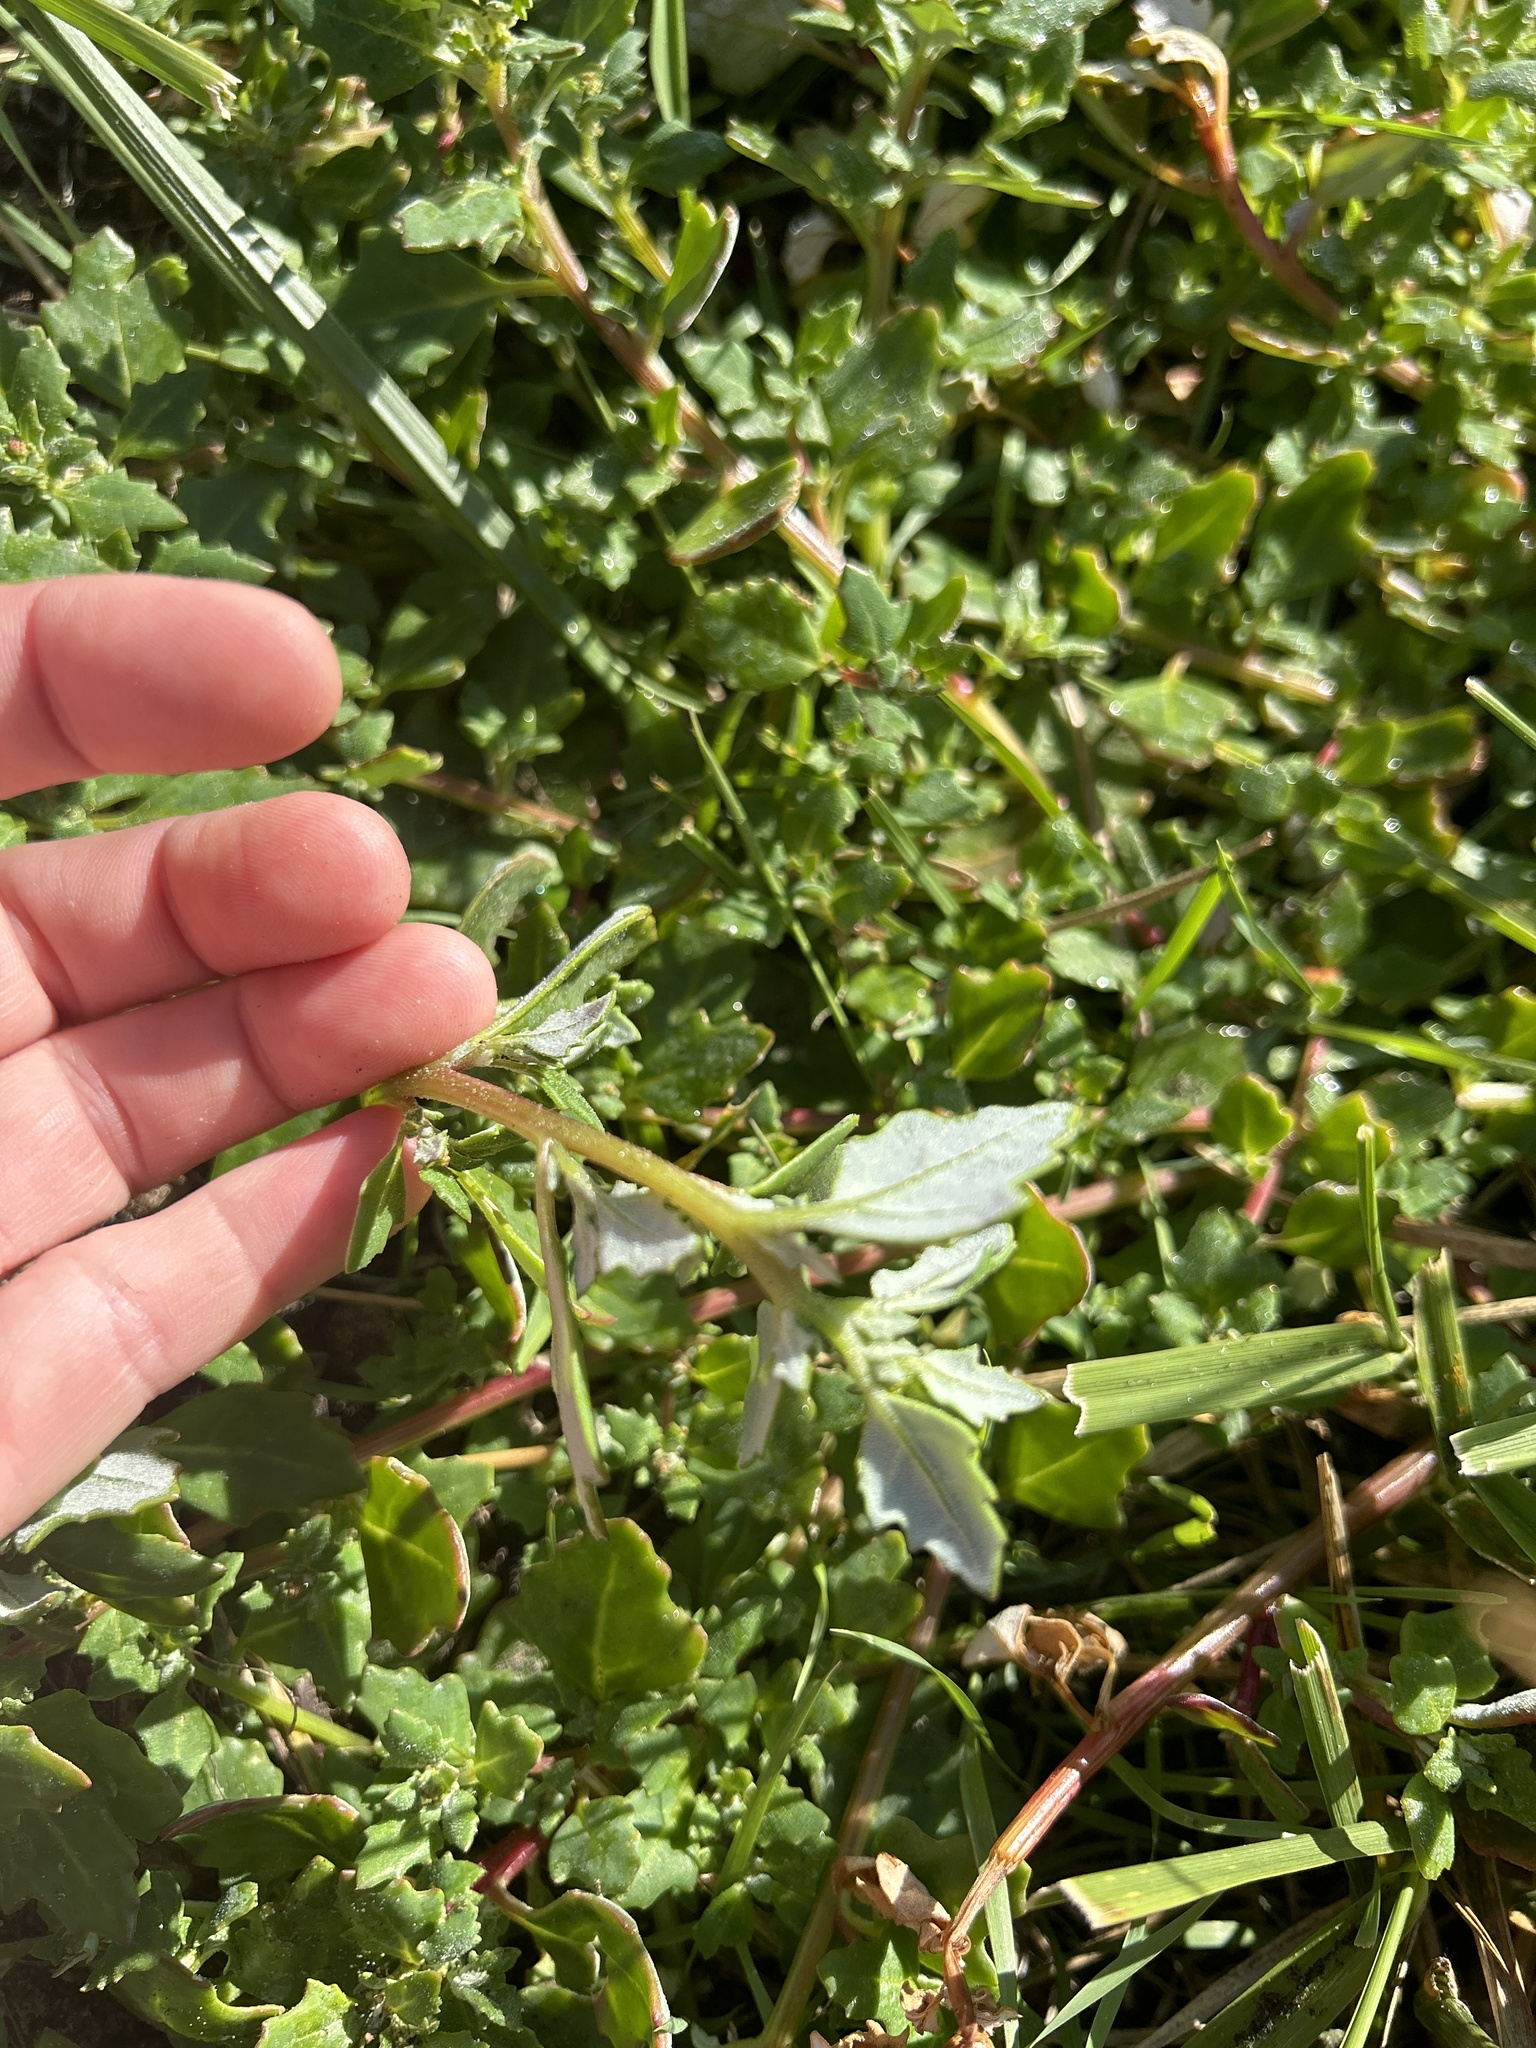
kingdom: Plantae
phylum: Tracheophyta
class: Magnoliopsida
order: Caryophyllales
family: Amaranthaceae
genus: Oxybasis
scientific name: Oxybasis ambigua
